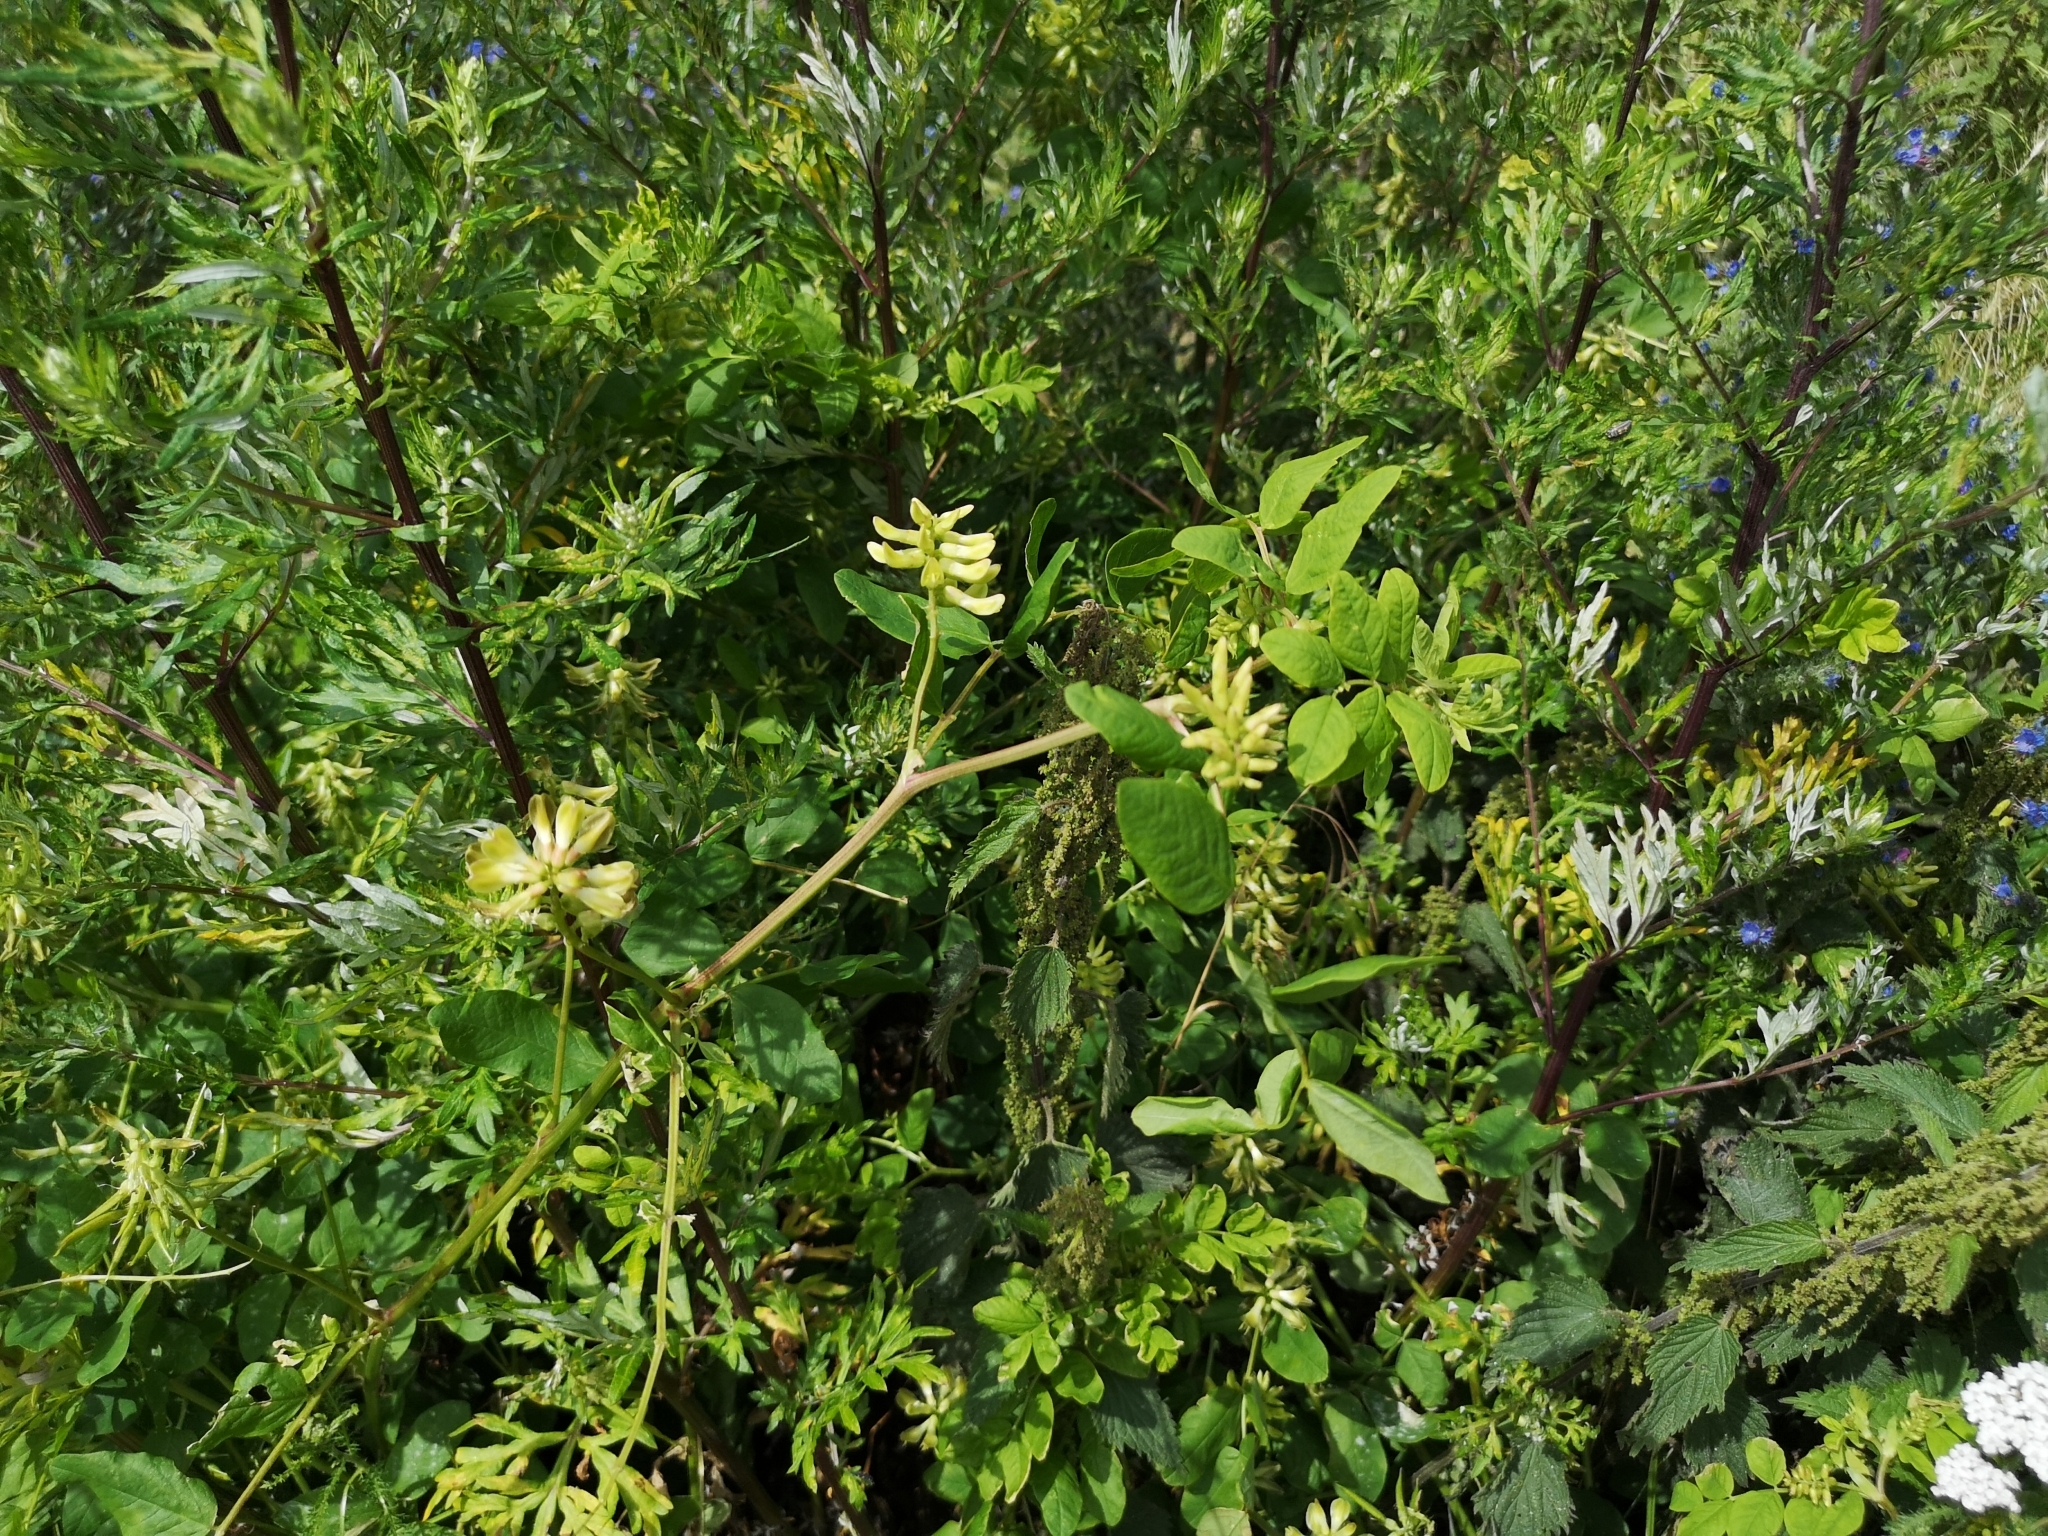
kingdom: Plantae
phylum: Tracheophyta
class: Magnoliopsida
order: Fabales
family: Fabaceae
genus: Astragalus
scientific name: Astragalus glycyphyllos
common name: Wild liquorice
